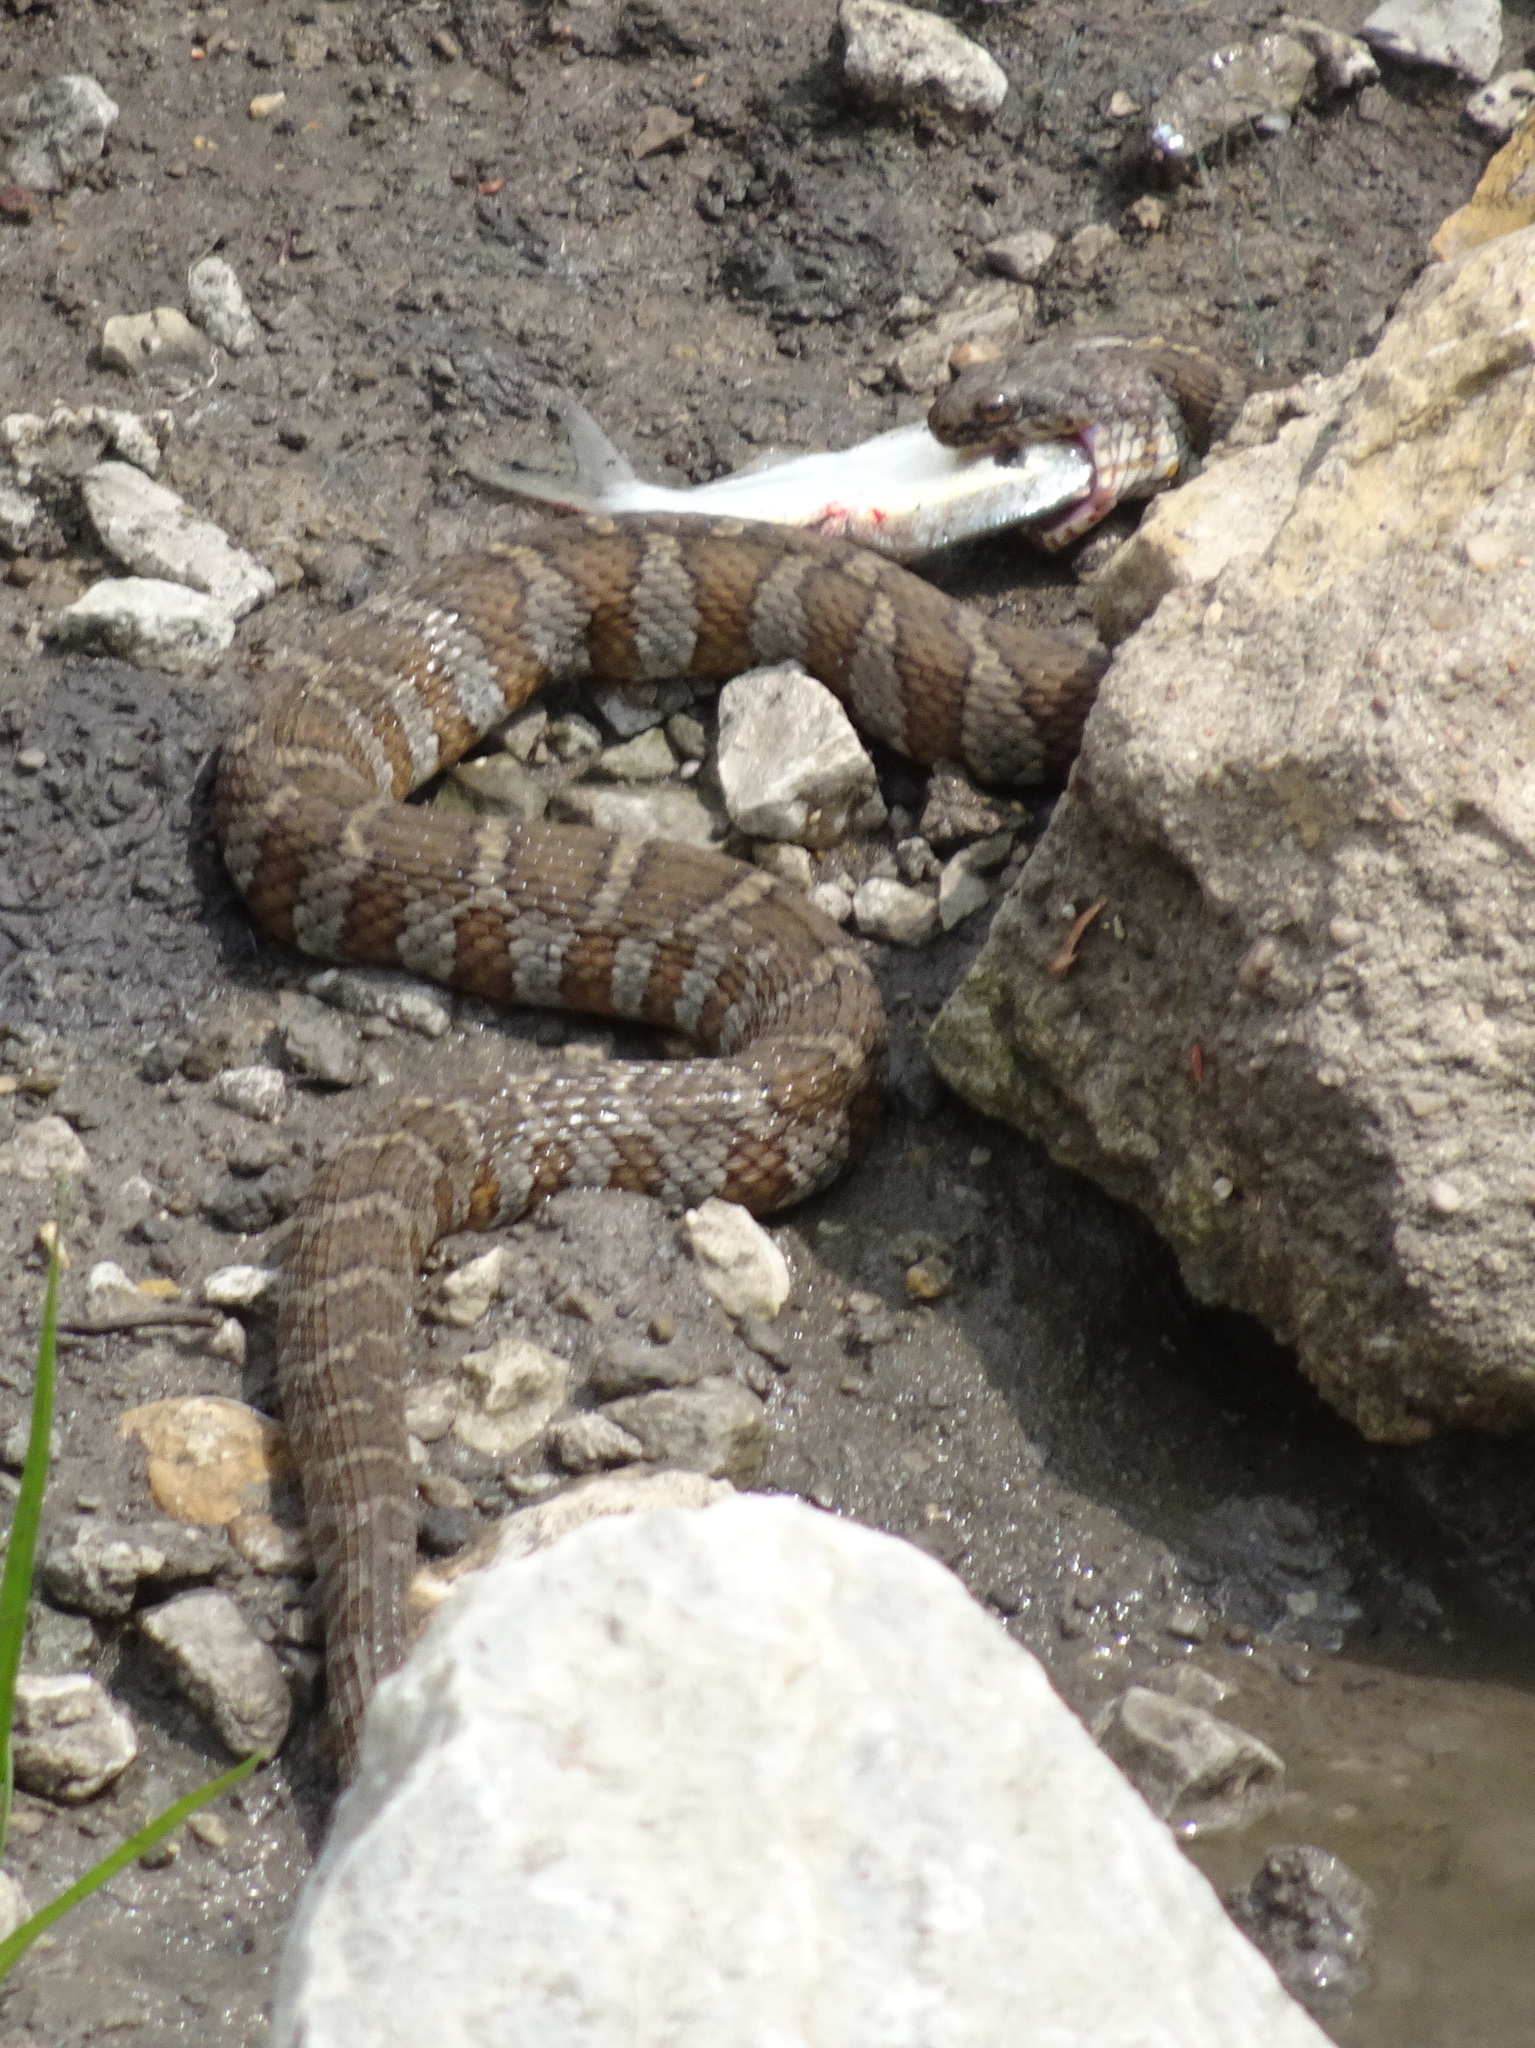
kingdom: Animalia
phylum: Chordata
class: Squamata
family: Colubridae
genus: Nerodia
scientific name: Nerodia sipedon
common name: Northern water snake
